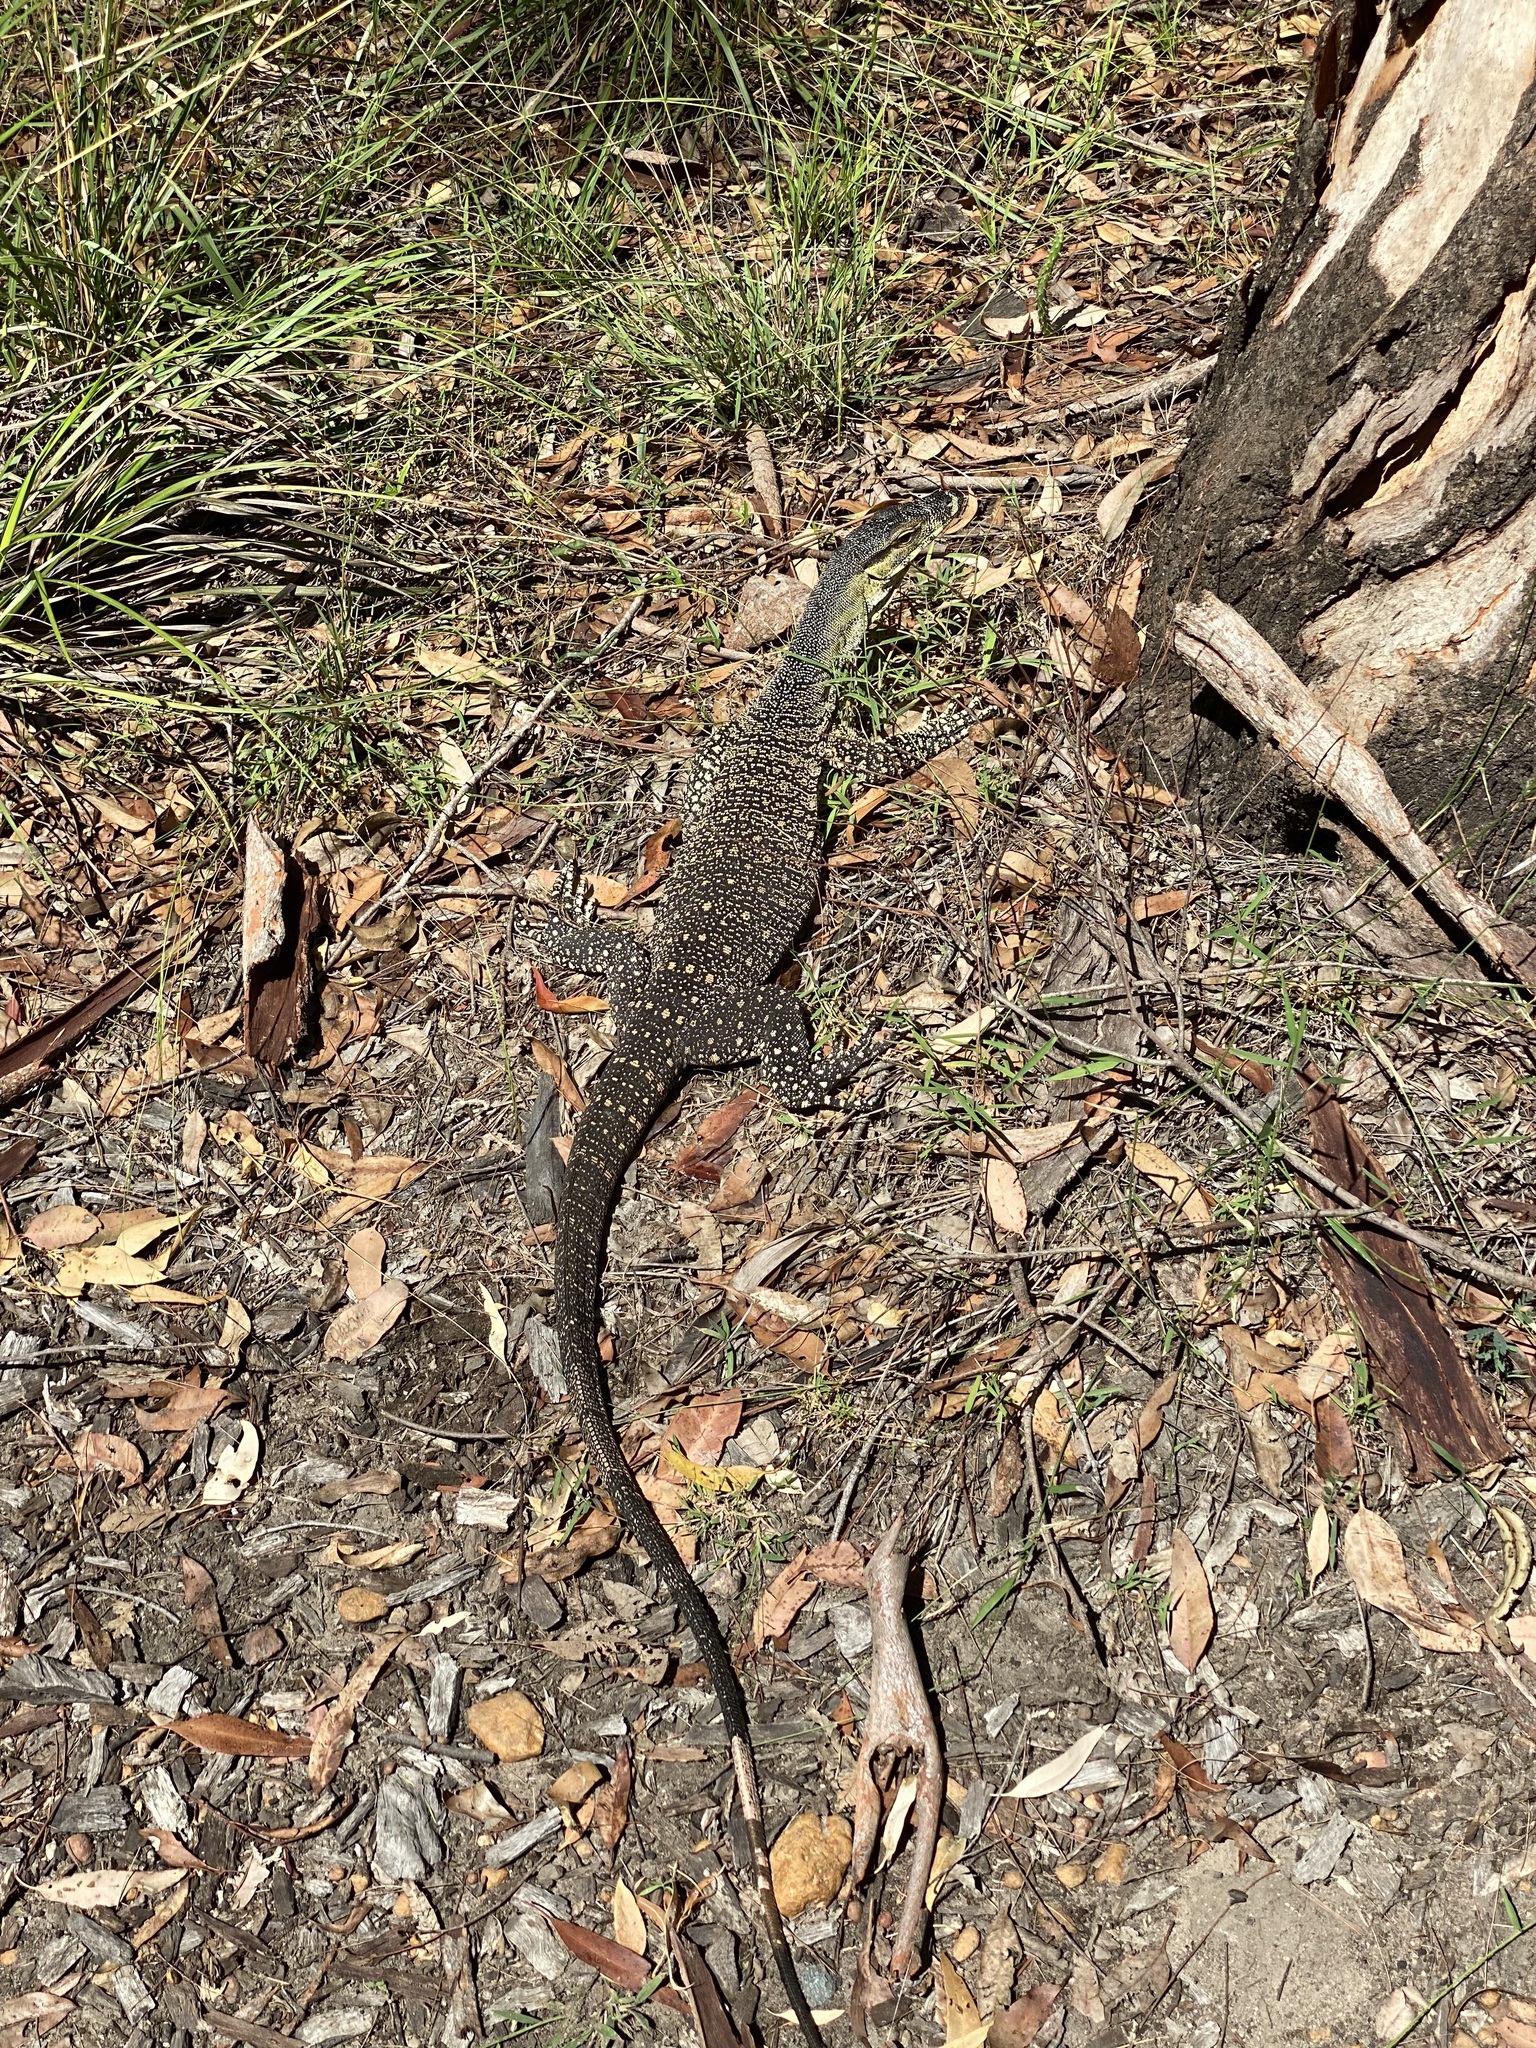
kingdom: Animalia
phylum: Chordata
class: Squamata
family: Varanidae
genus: Varanus
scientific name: Varanus varius
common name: Lace monitor
